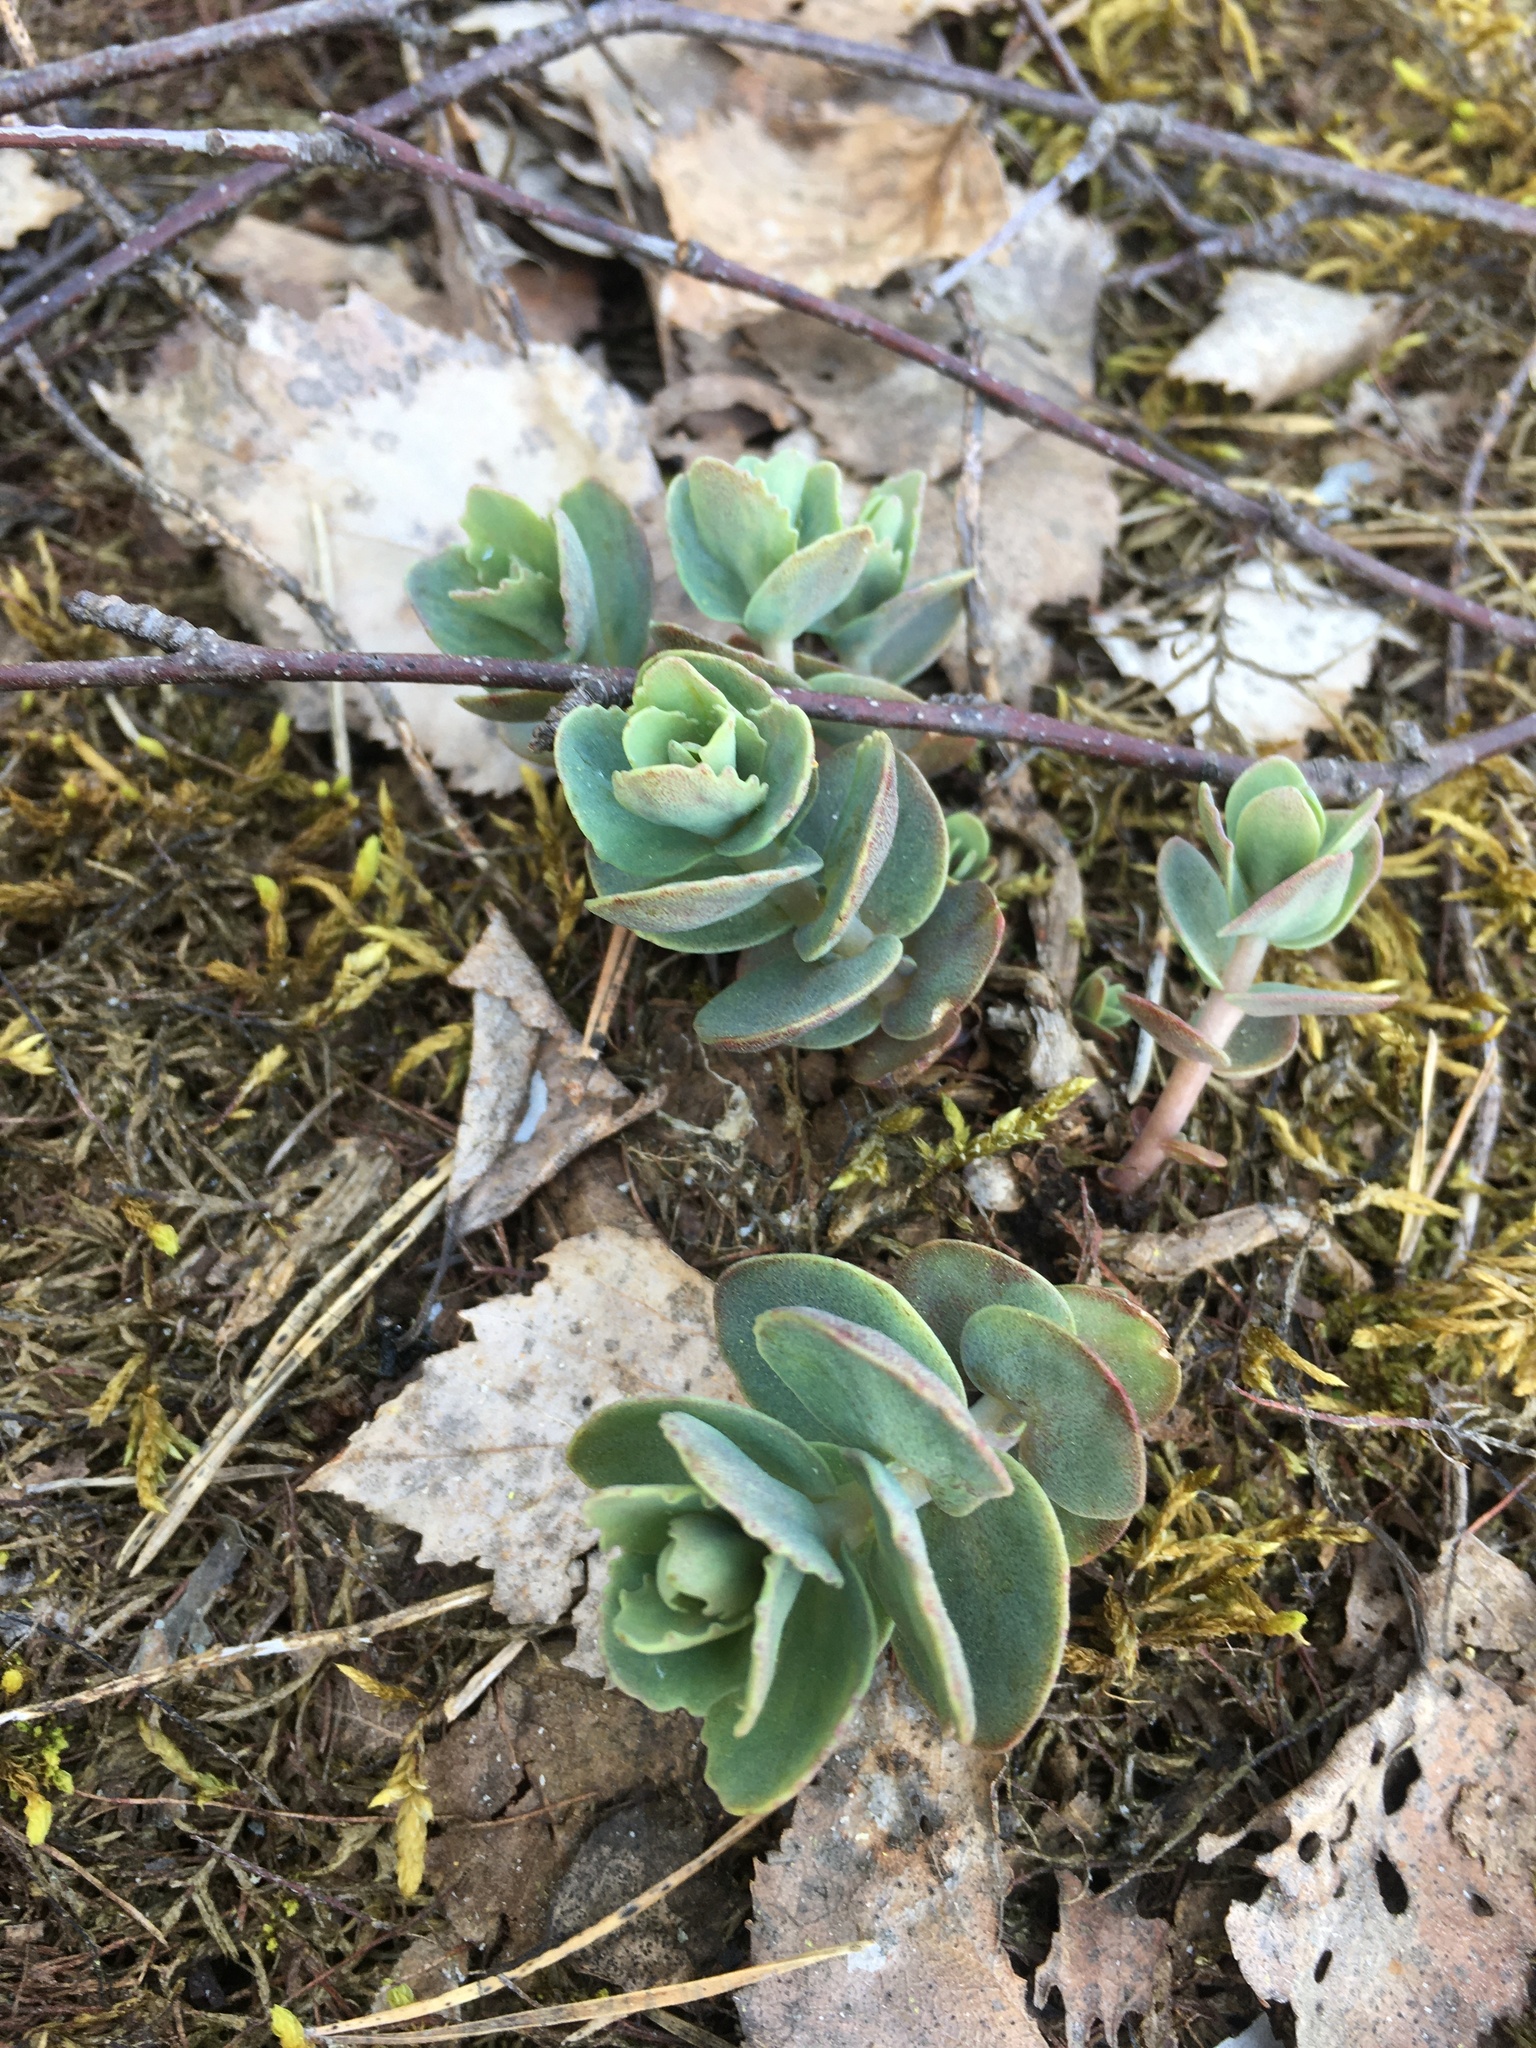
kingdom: Plantae
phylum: Tracheophyta
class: Magnoliopsida
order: Saxifragales
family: Crassulaceae
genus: Hylotelephium
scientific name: Hylotelephium maximum
